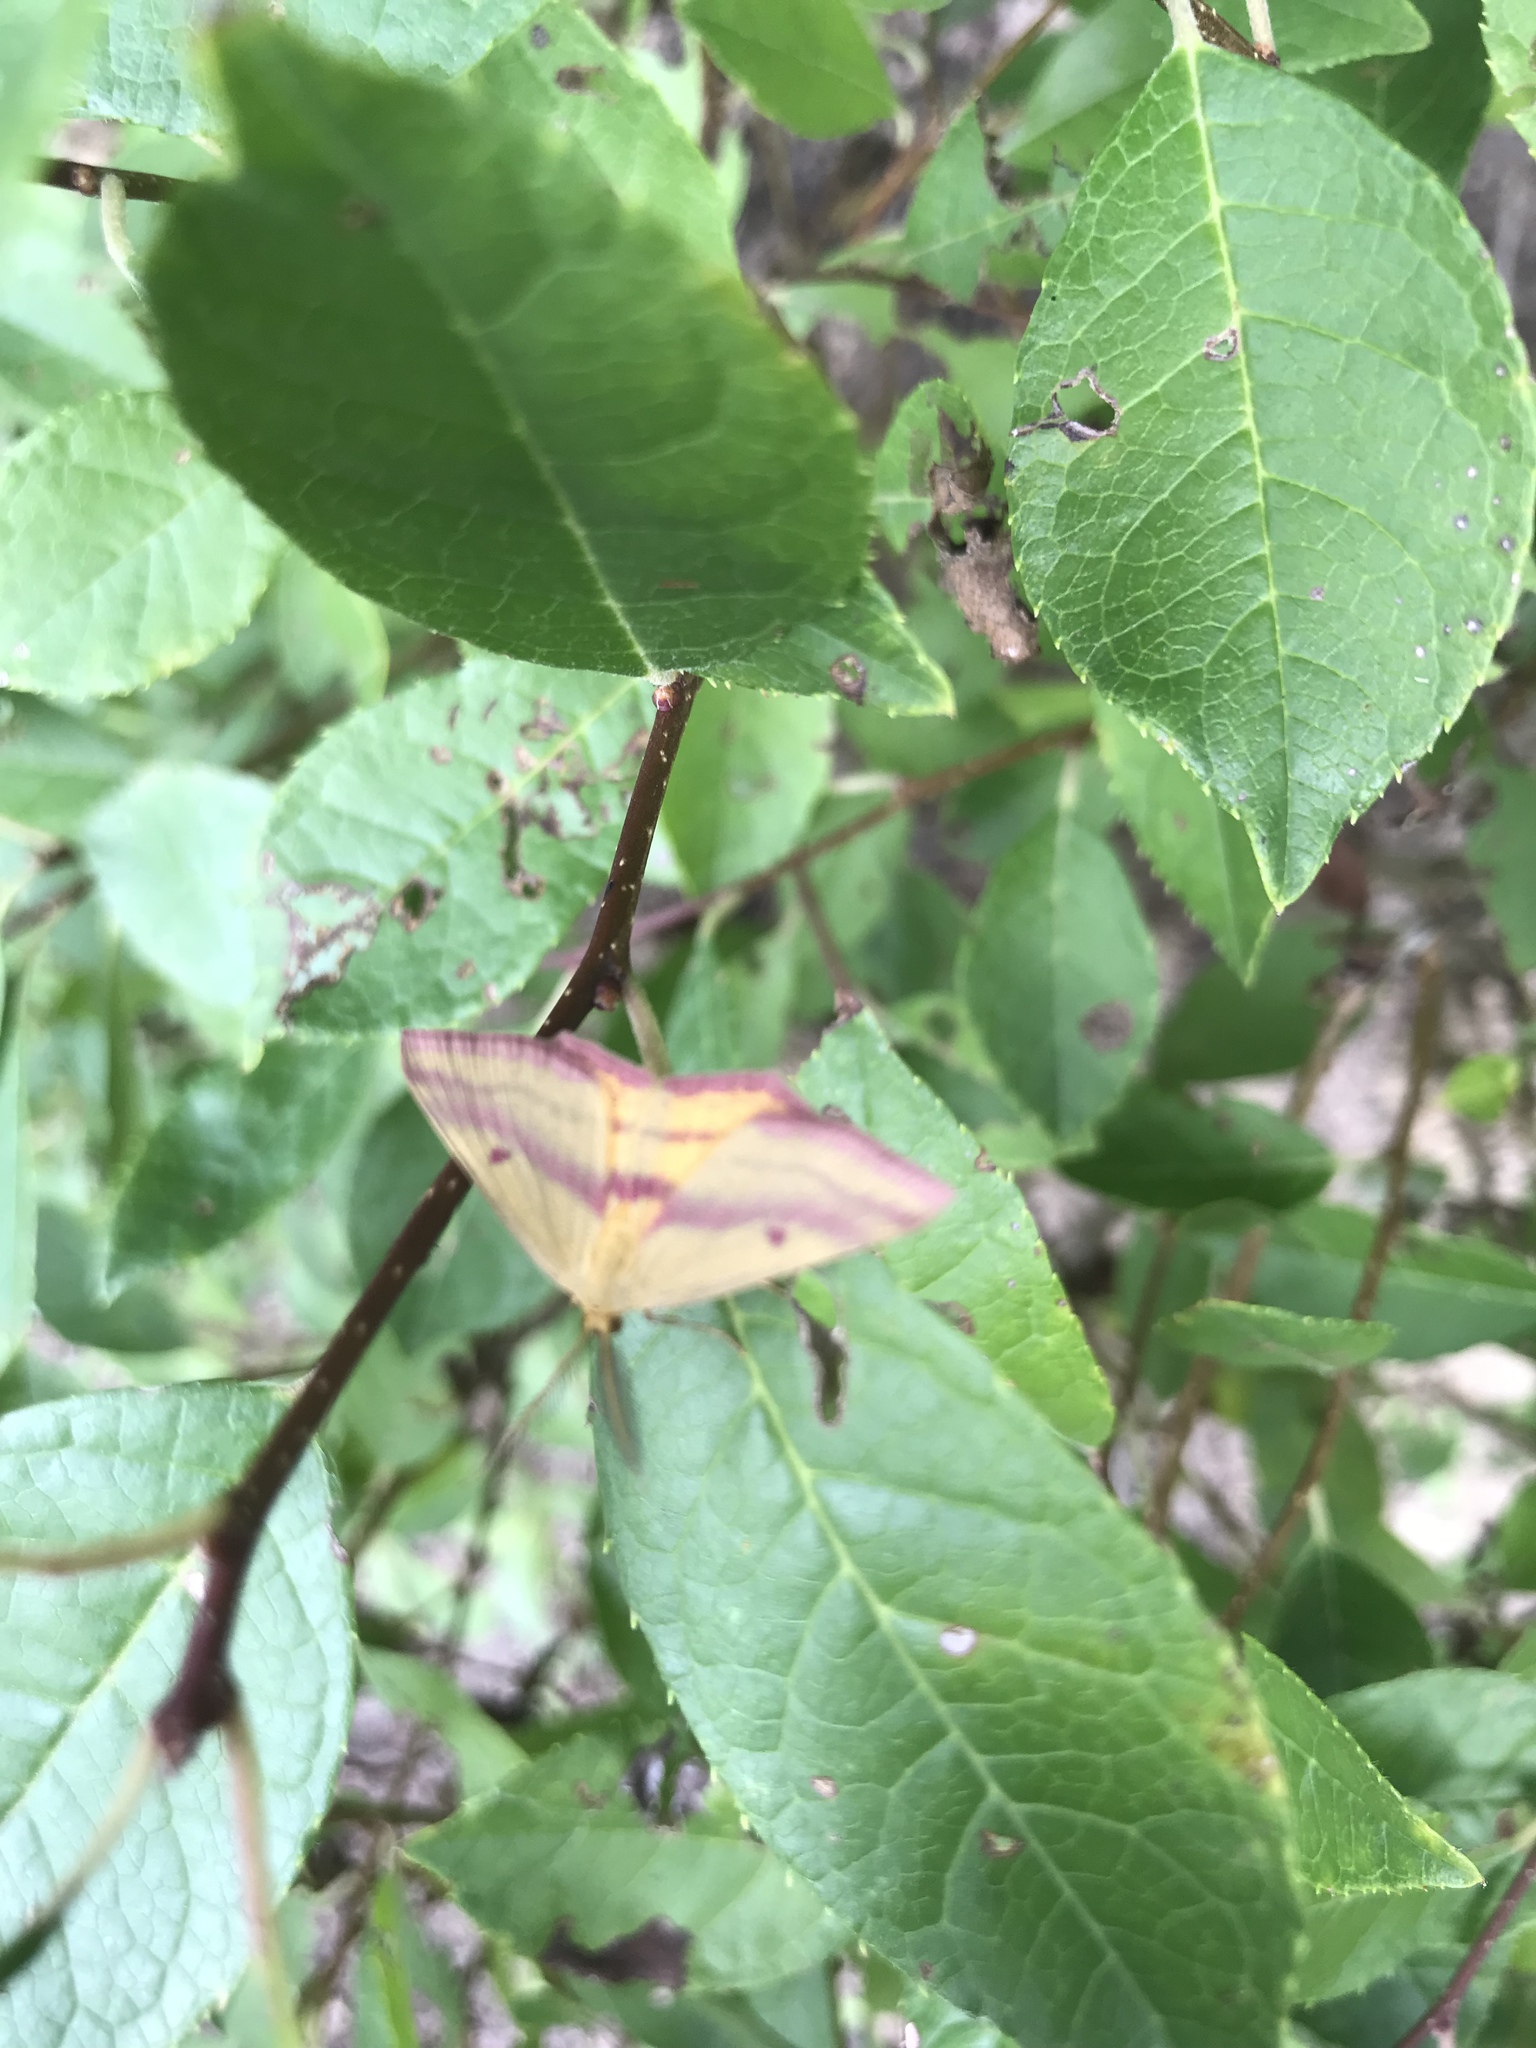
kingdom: Animalia
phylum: Arthropoda
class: Insecta
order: Lepidoptera
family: Geometridae
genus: Haematopis
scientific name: Haematopis grataria
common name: Chickweed geometer
